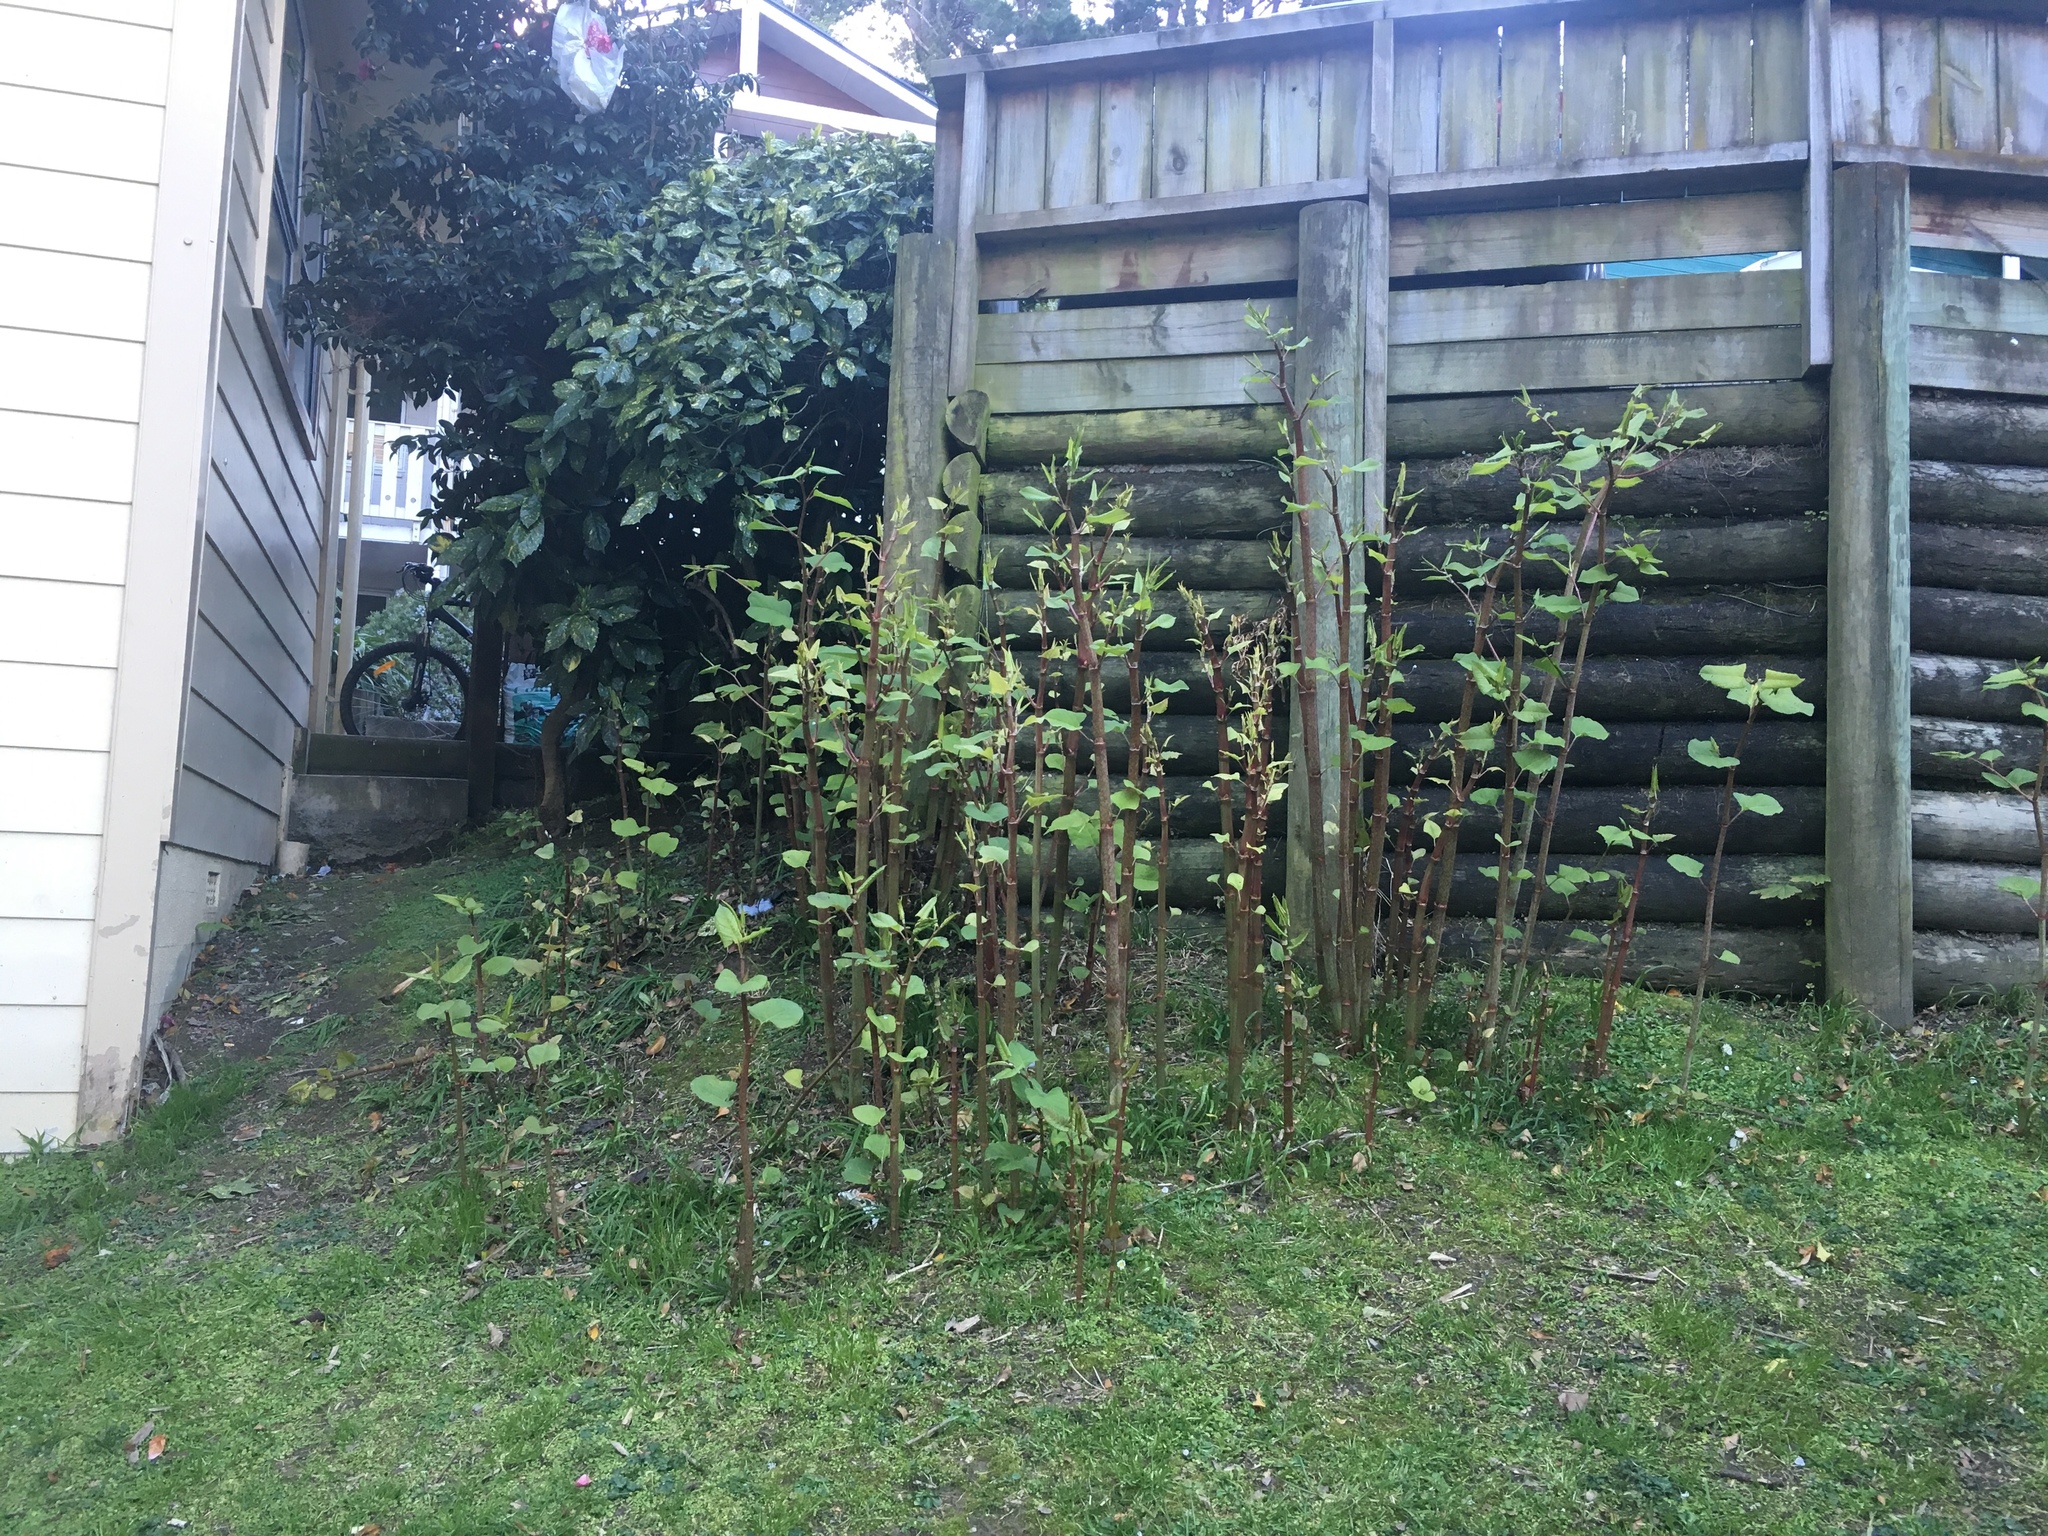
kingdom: Plantae
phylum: Tracheophyta
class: Magnoliopsida
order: Caryophyllales
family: Polygonaceae
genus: Reynoutria
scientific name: Reynoutria japonica
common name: Japanese knotweed
